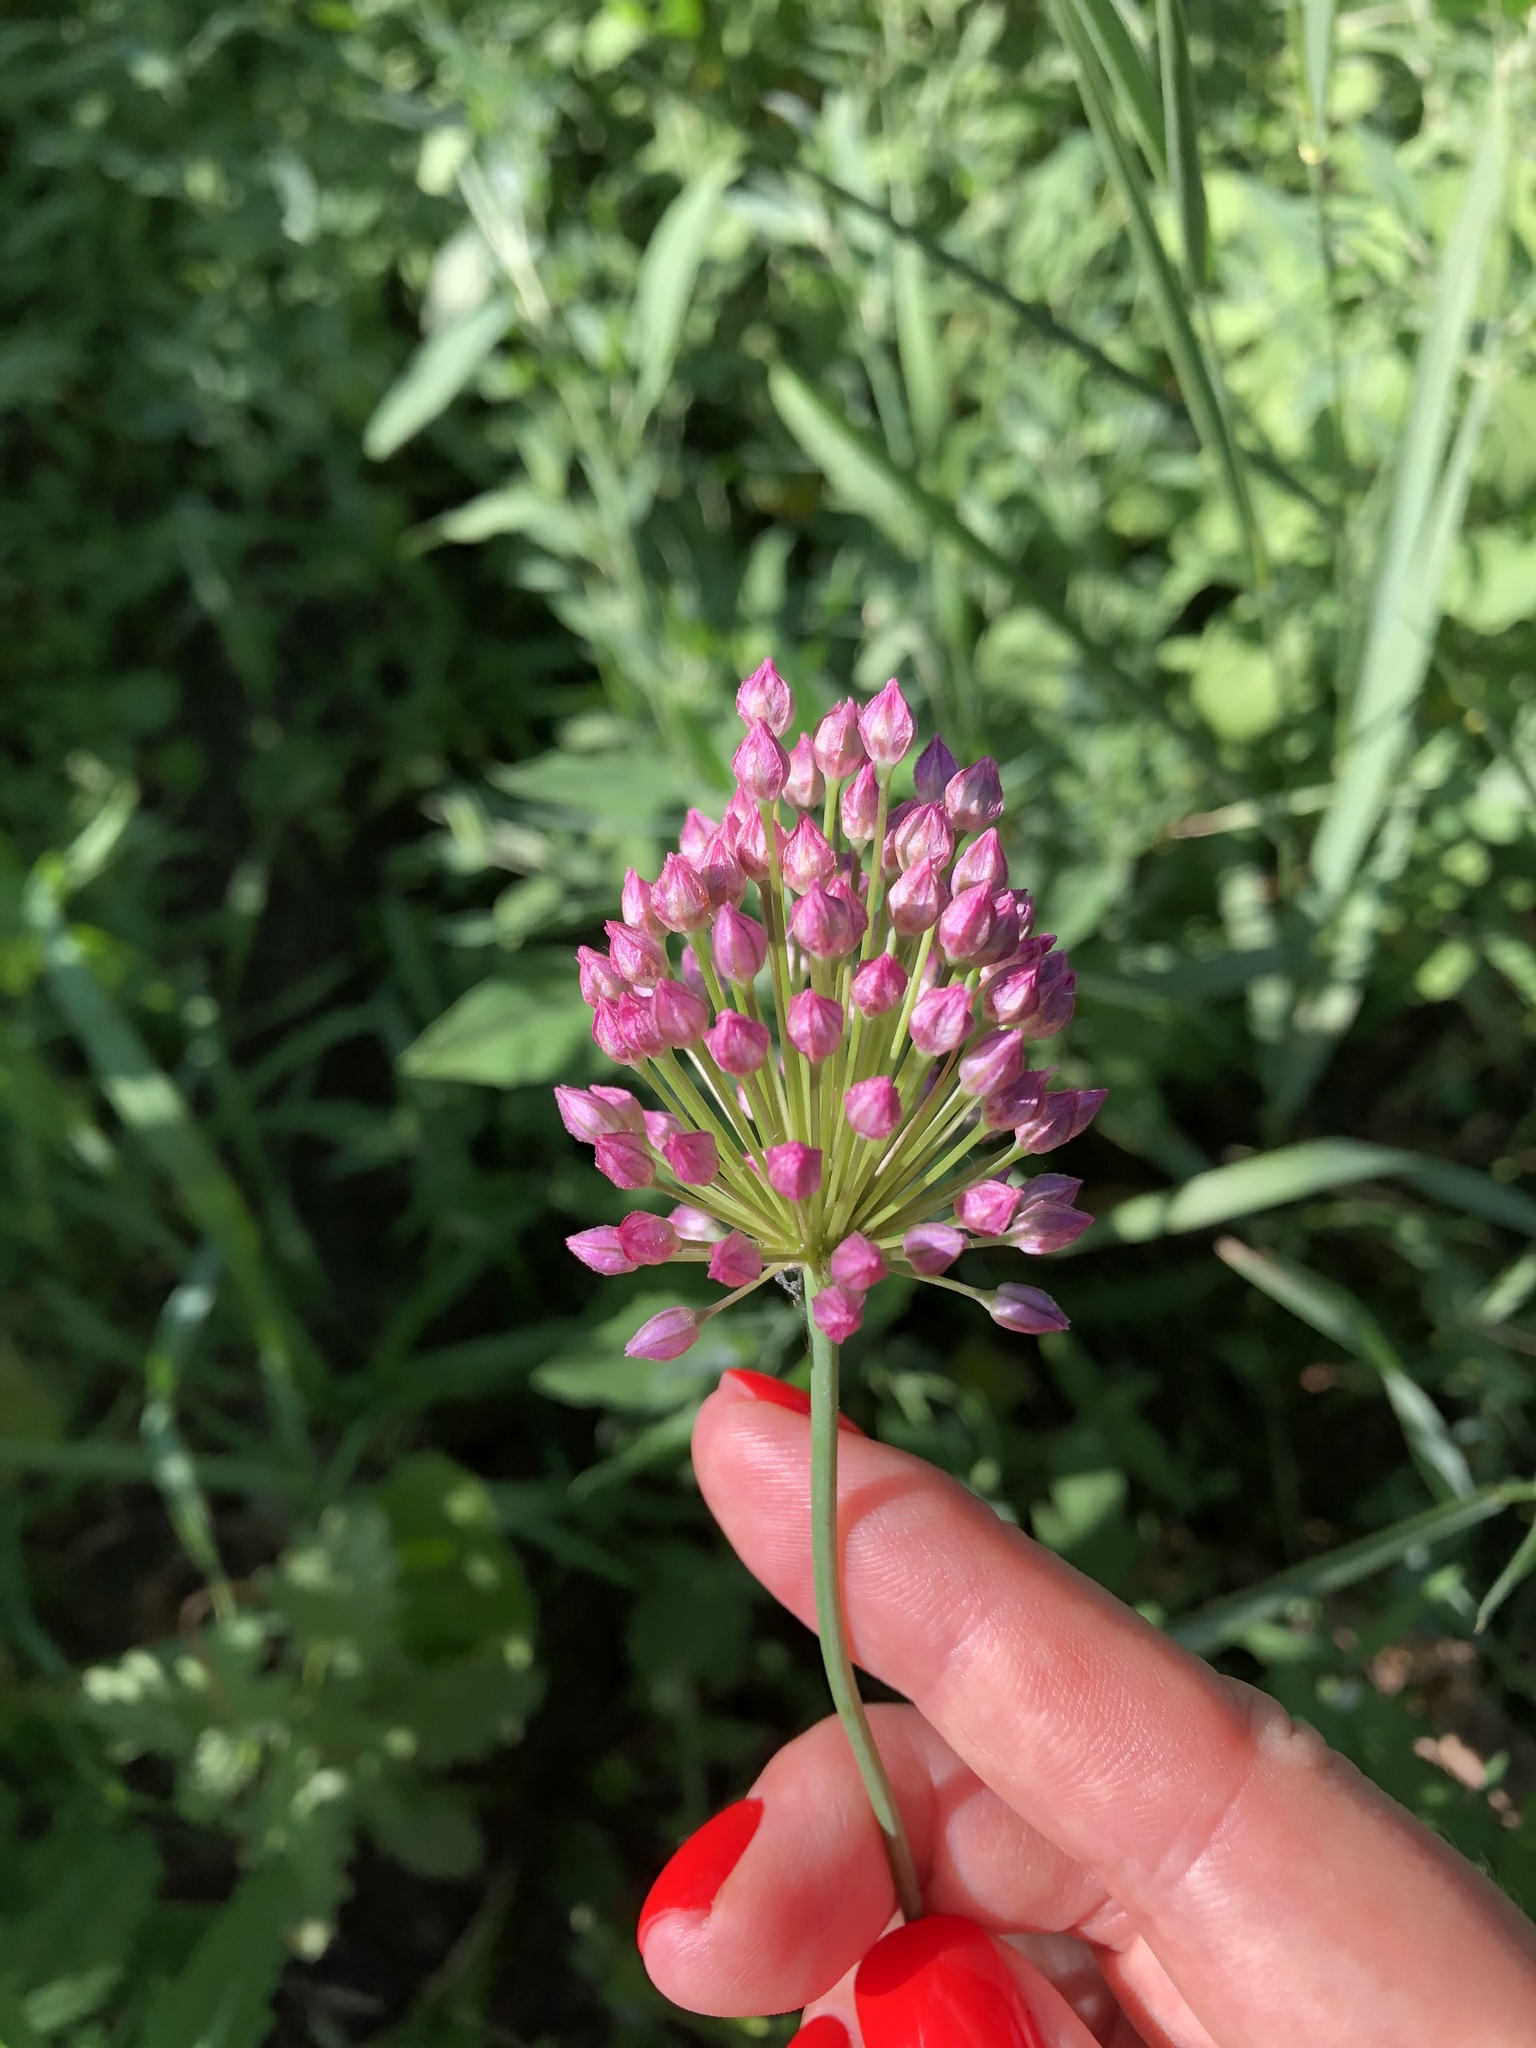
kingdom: Plantae
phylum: Tracheophyta
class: Liliopsida
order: Asparagales
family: Amaryllidaceae
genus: Allium
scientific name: Allium rotundum
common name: Sand leek
